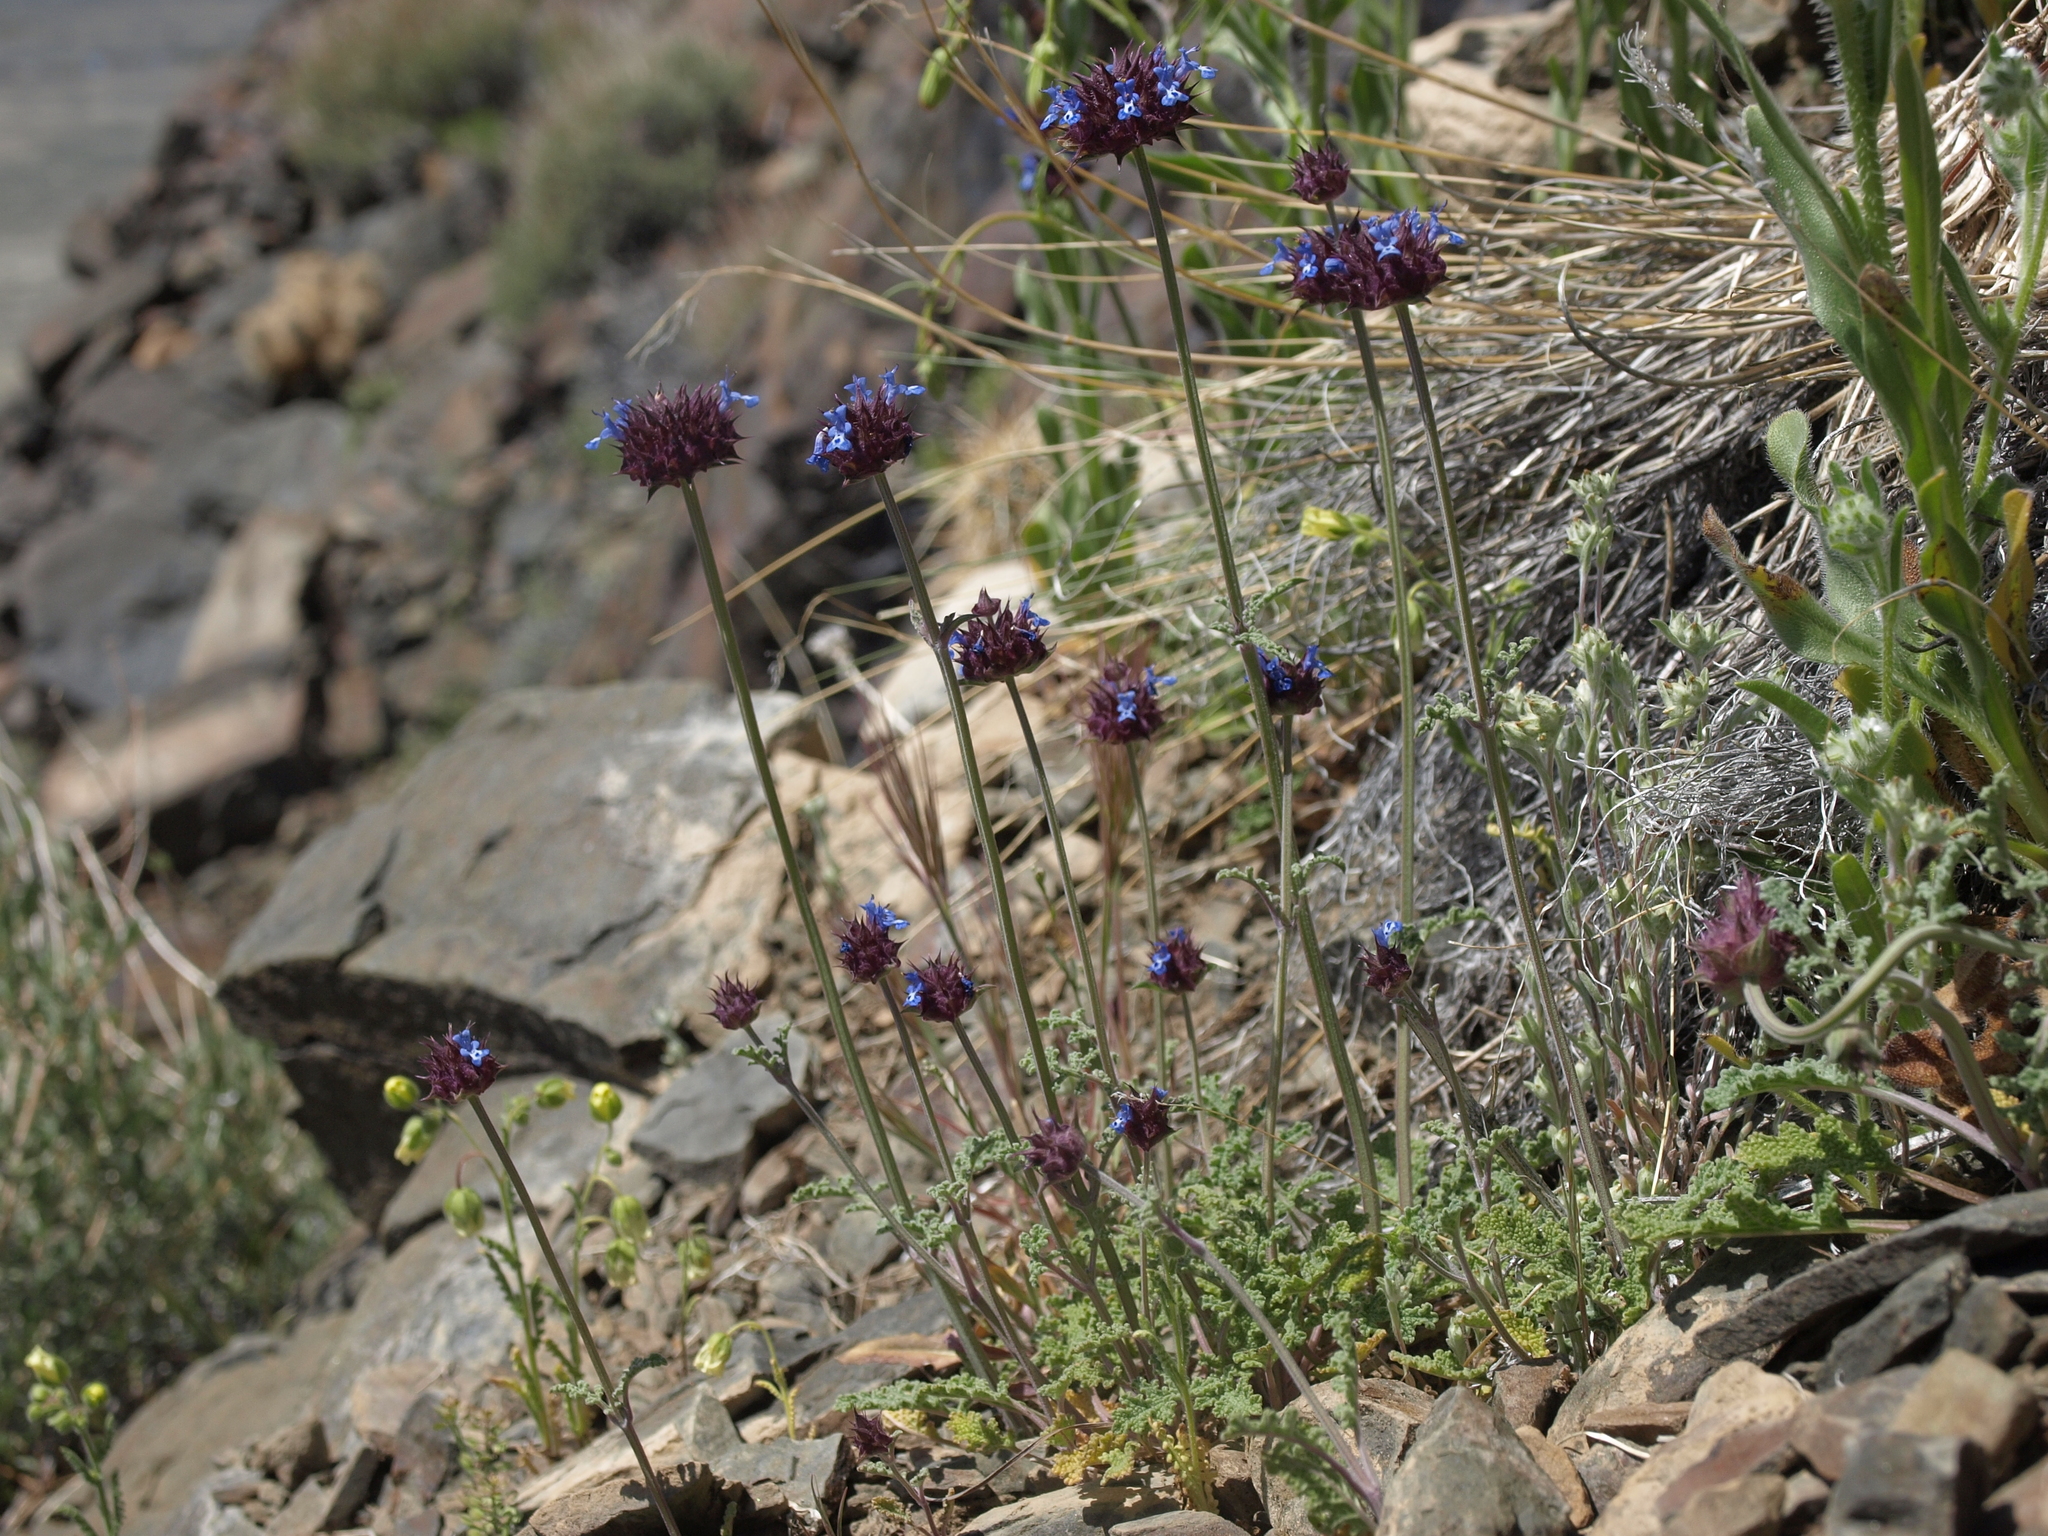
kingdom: Plantae
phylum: Tracheophyta
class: Magnoliopsida
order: Lamiales
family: Lamiaceae
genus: Salvia
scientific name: Salvia columbariae
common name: Chia
